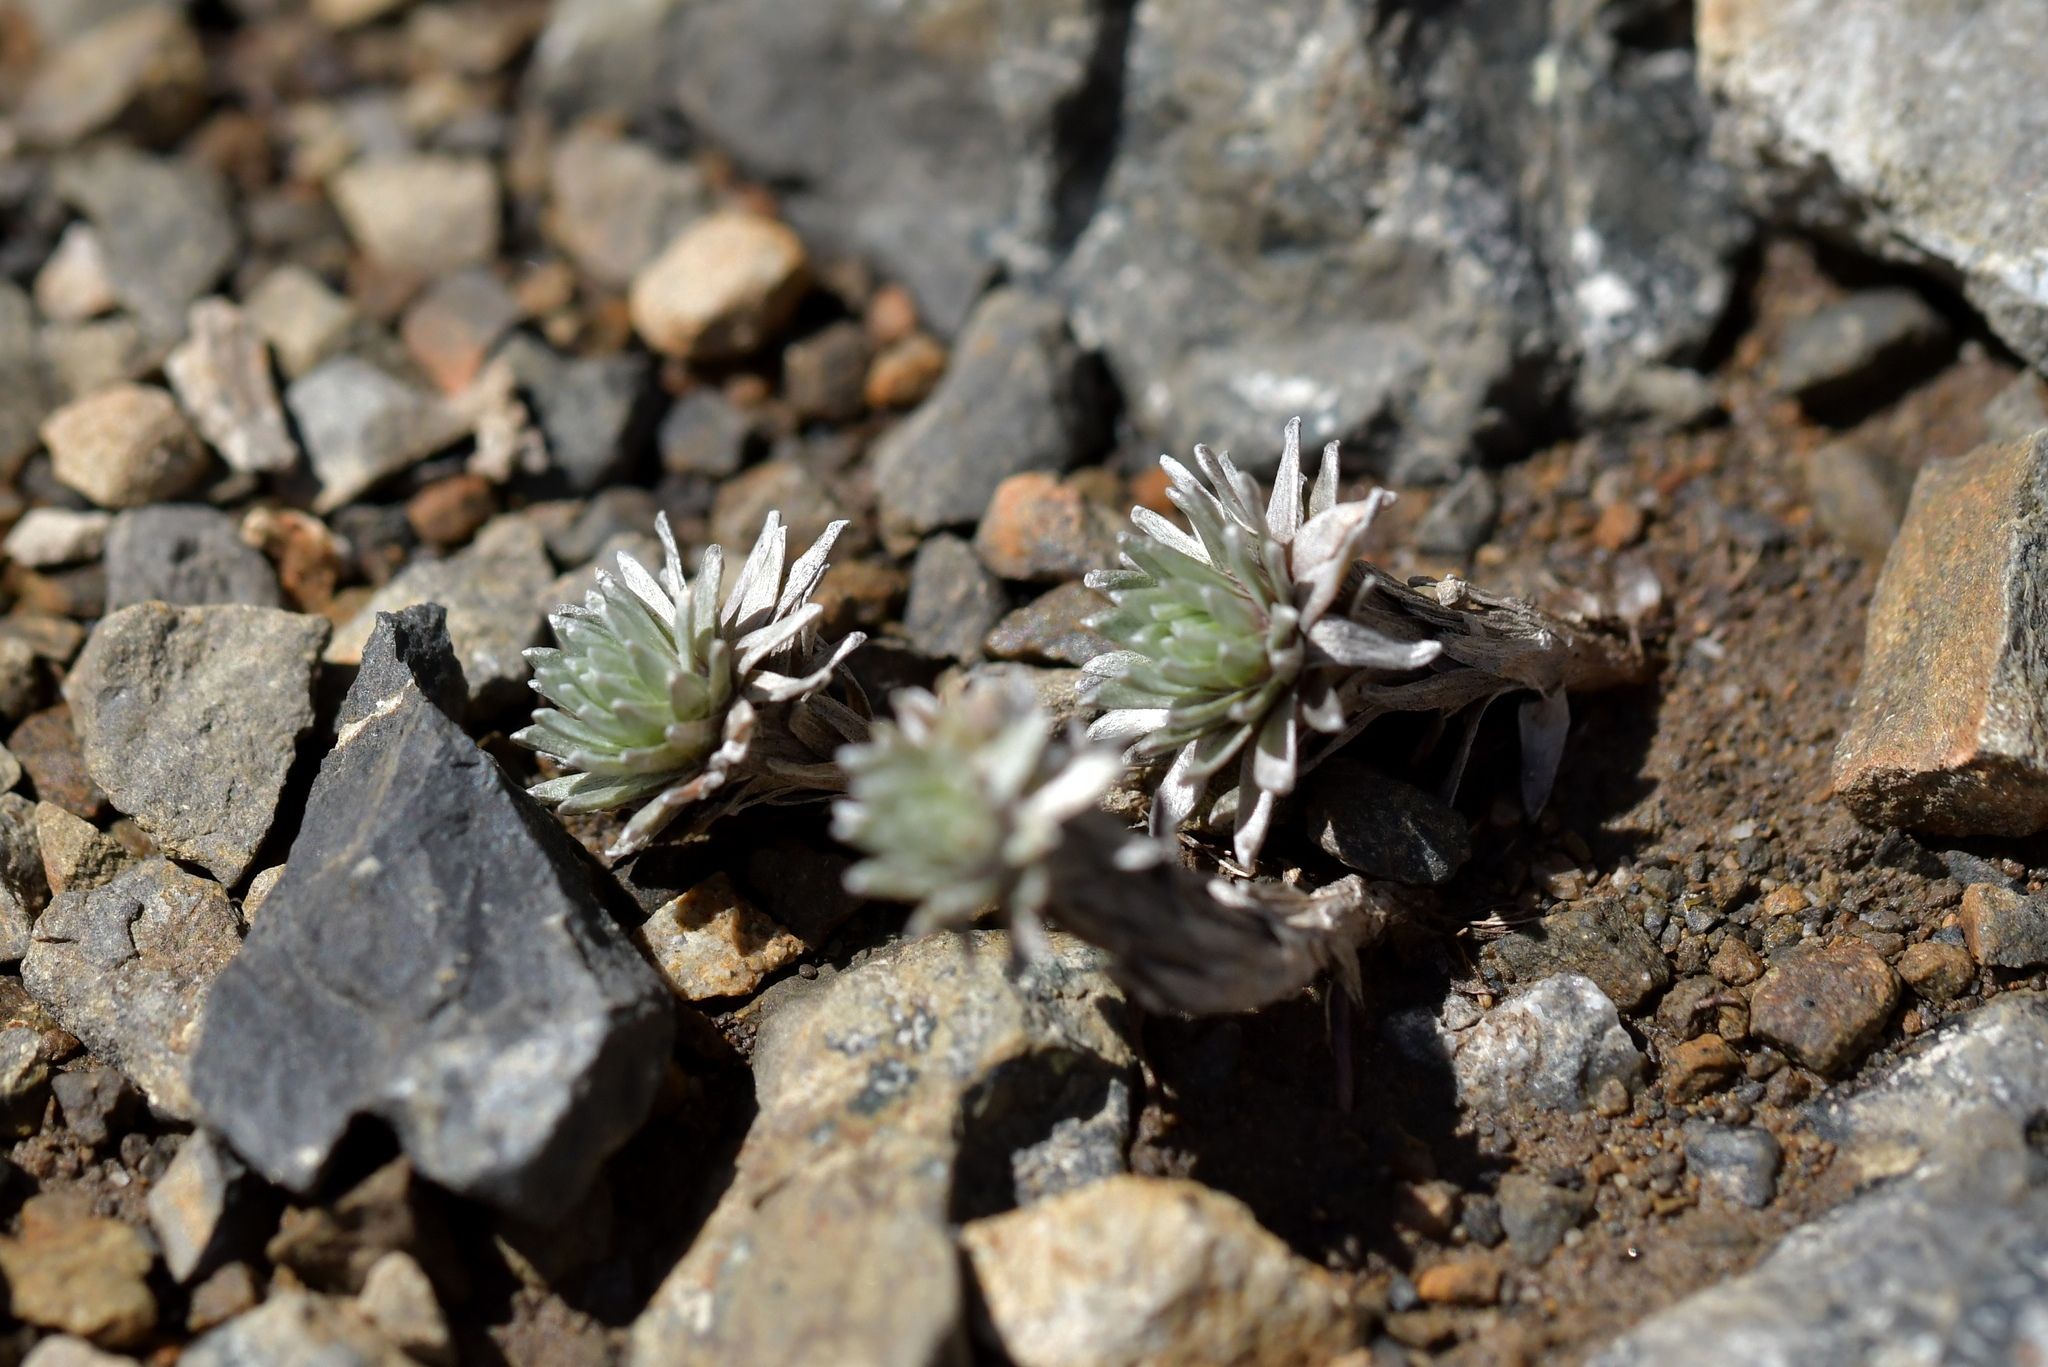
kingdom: Plantae
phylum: Tracheophyta
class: Magnoliopsida
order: Asterales
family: Asteraceae
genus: Raoulia
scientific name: Raoulia grandiflora
